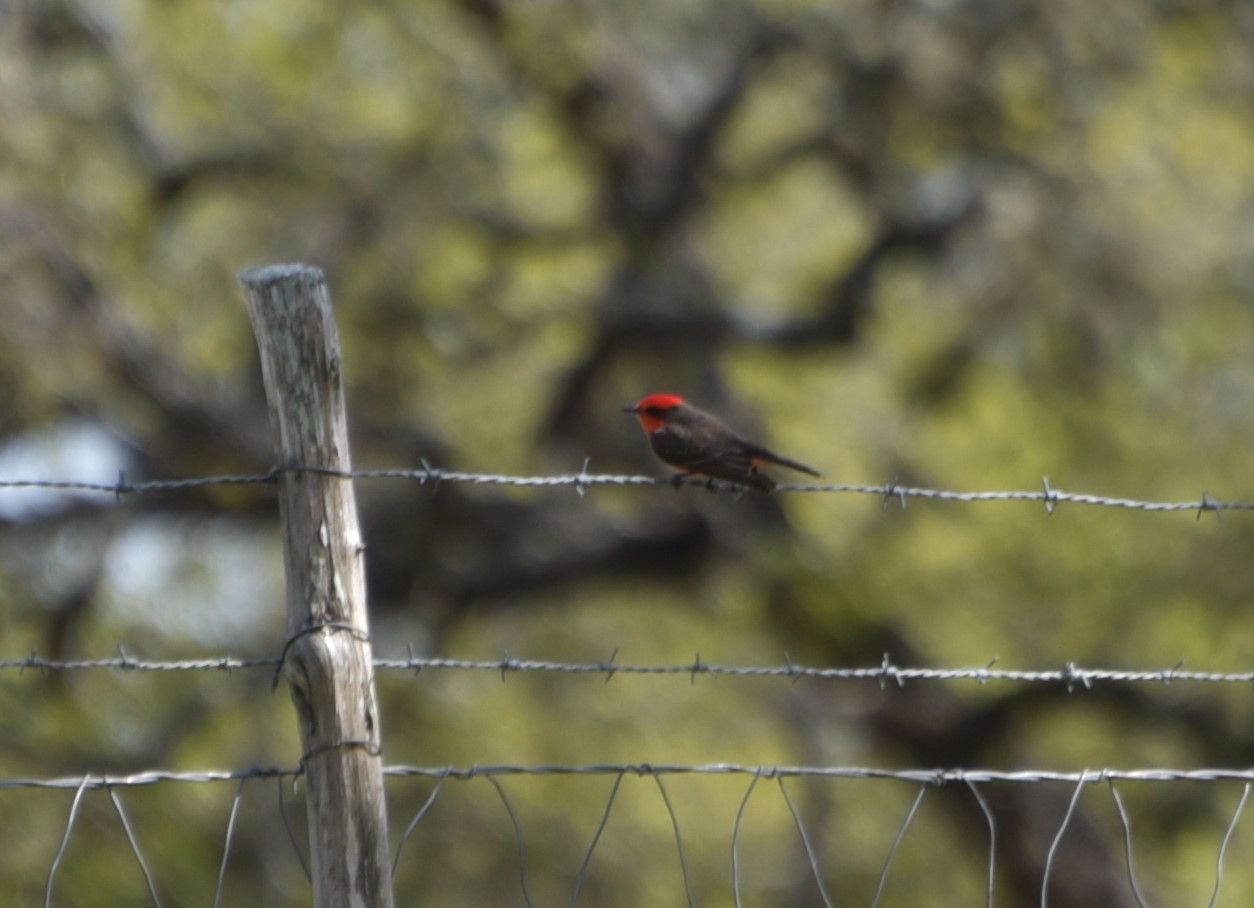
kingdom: Animalia
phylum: Chordata
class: Aves
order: Passeriformes
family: Tyrannidae
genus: Pyrocephalus
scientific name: Pyrocephalus rubinus
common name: Vermilion flycatcher
